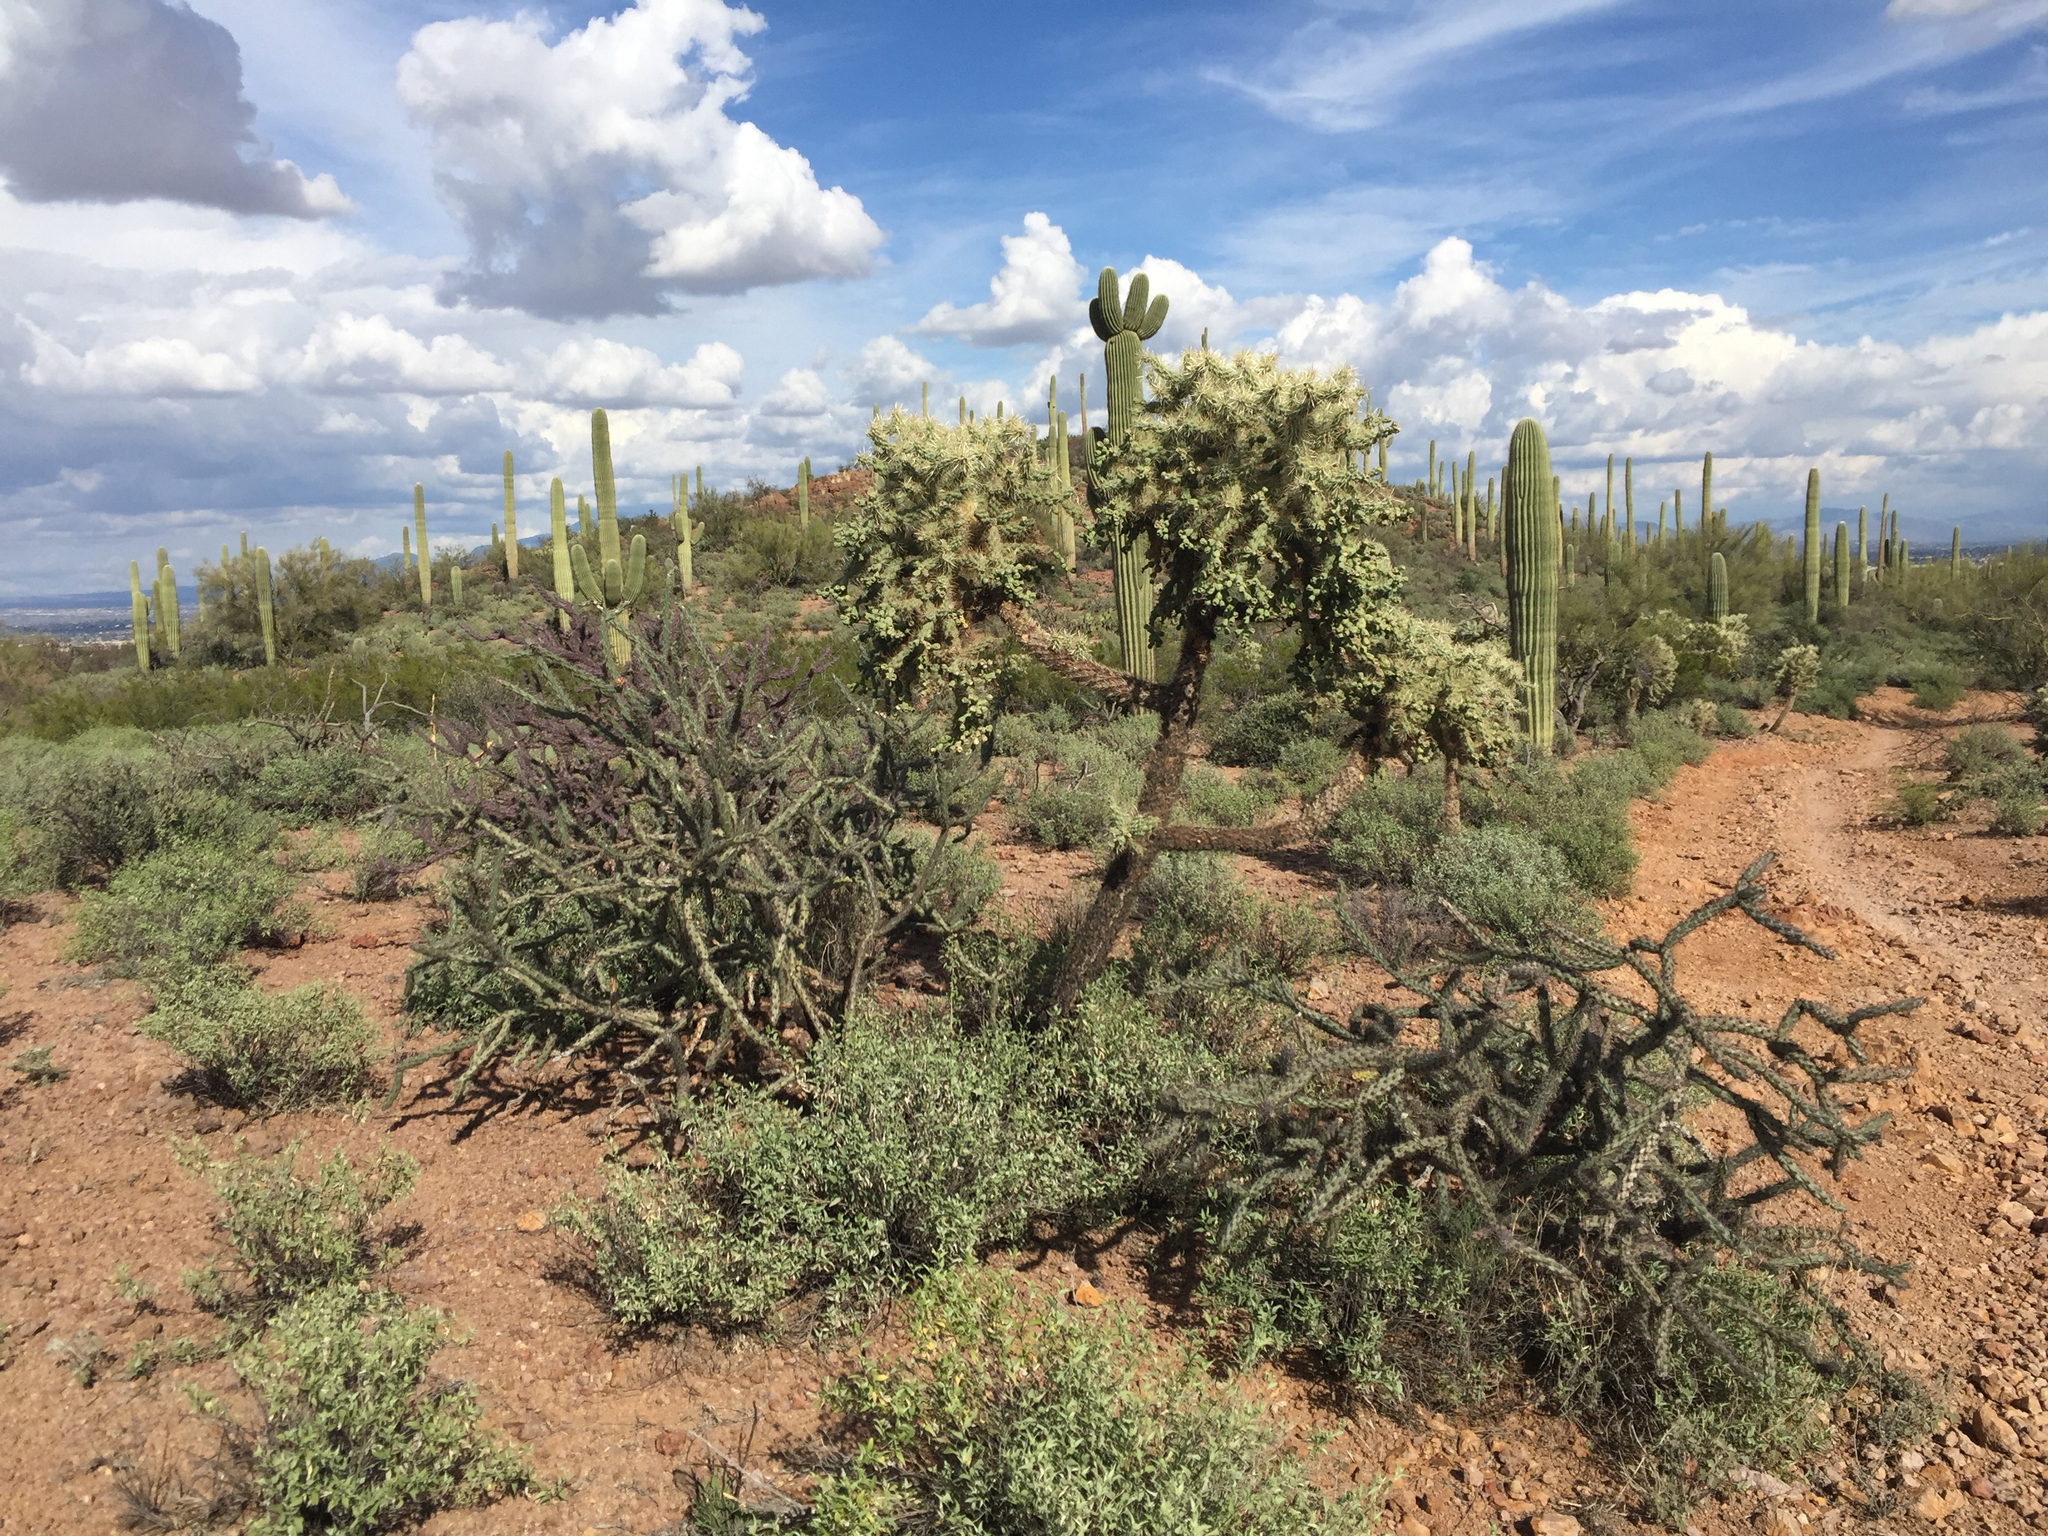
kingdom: Plantae
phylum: Tracheophyta
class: Magnoliopsida
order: Caryophyllales
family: Cactaceae
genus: Cylindropuntia
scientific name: Cylindropuntia fulgida
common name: Jumping cholla
